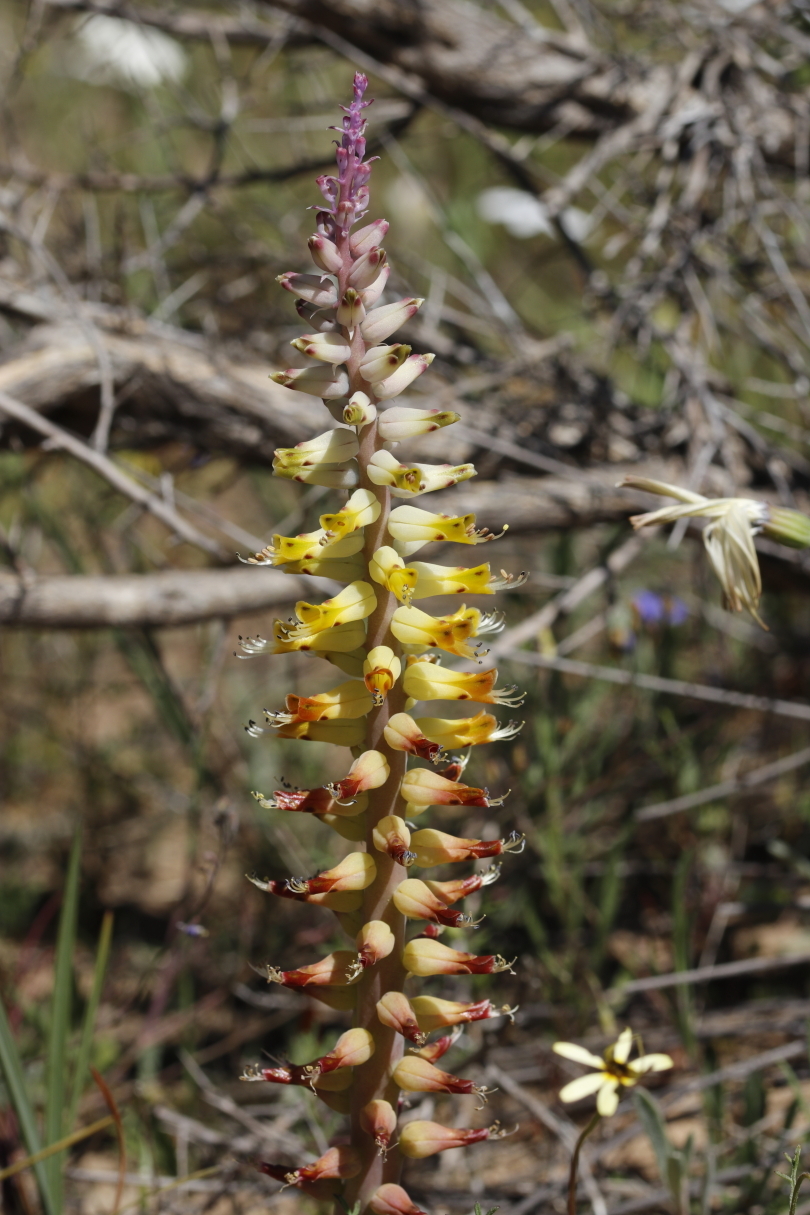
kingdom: Plantae
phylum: Tracheophyta
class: Liliopsida
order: Asparagales
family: Asparagaceae
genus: Lachenalia
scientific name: Lachenalia mutabilis
